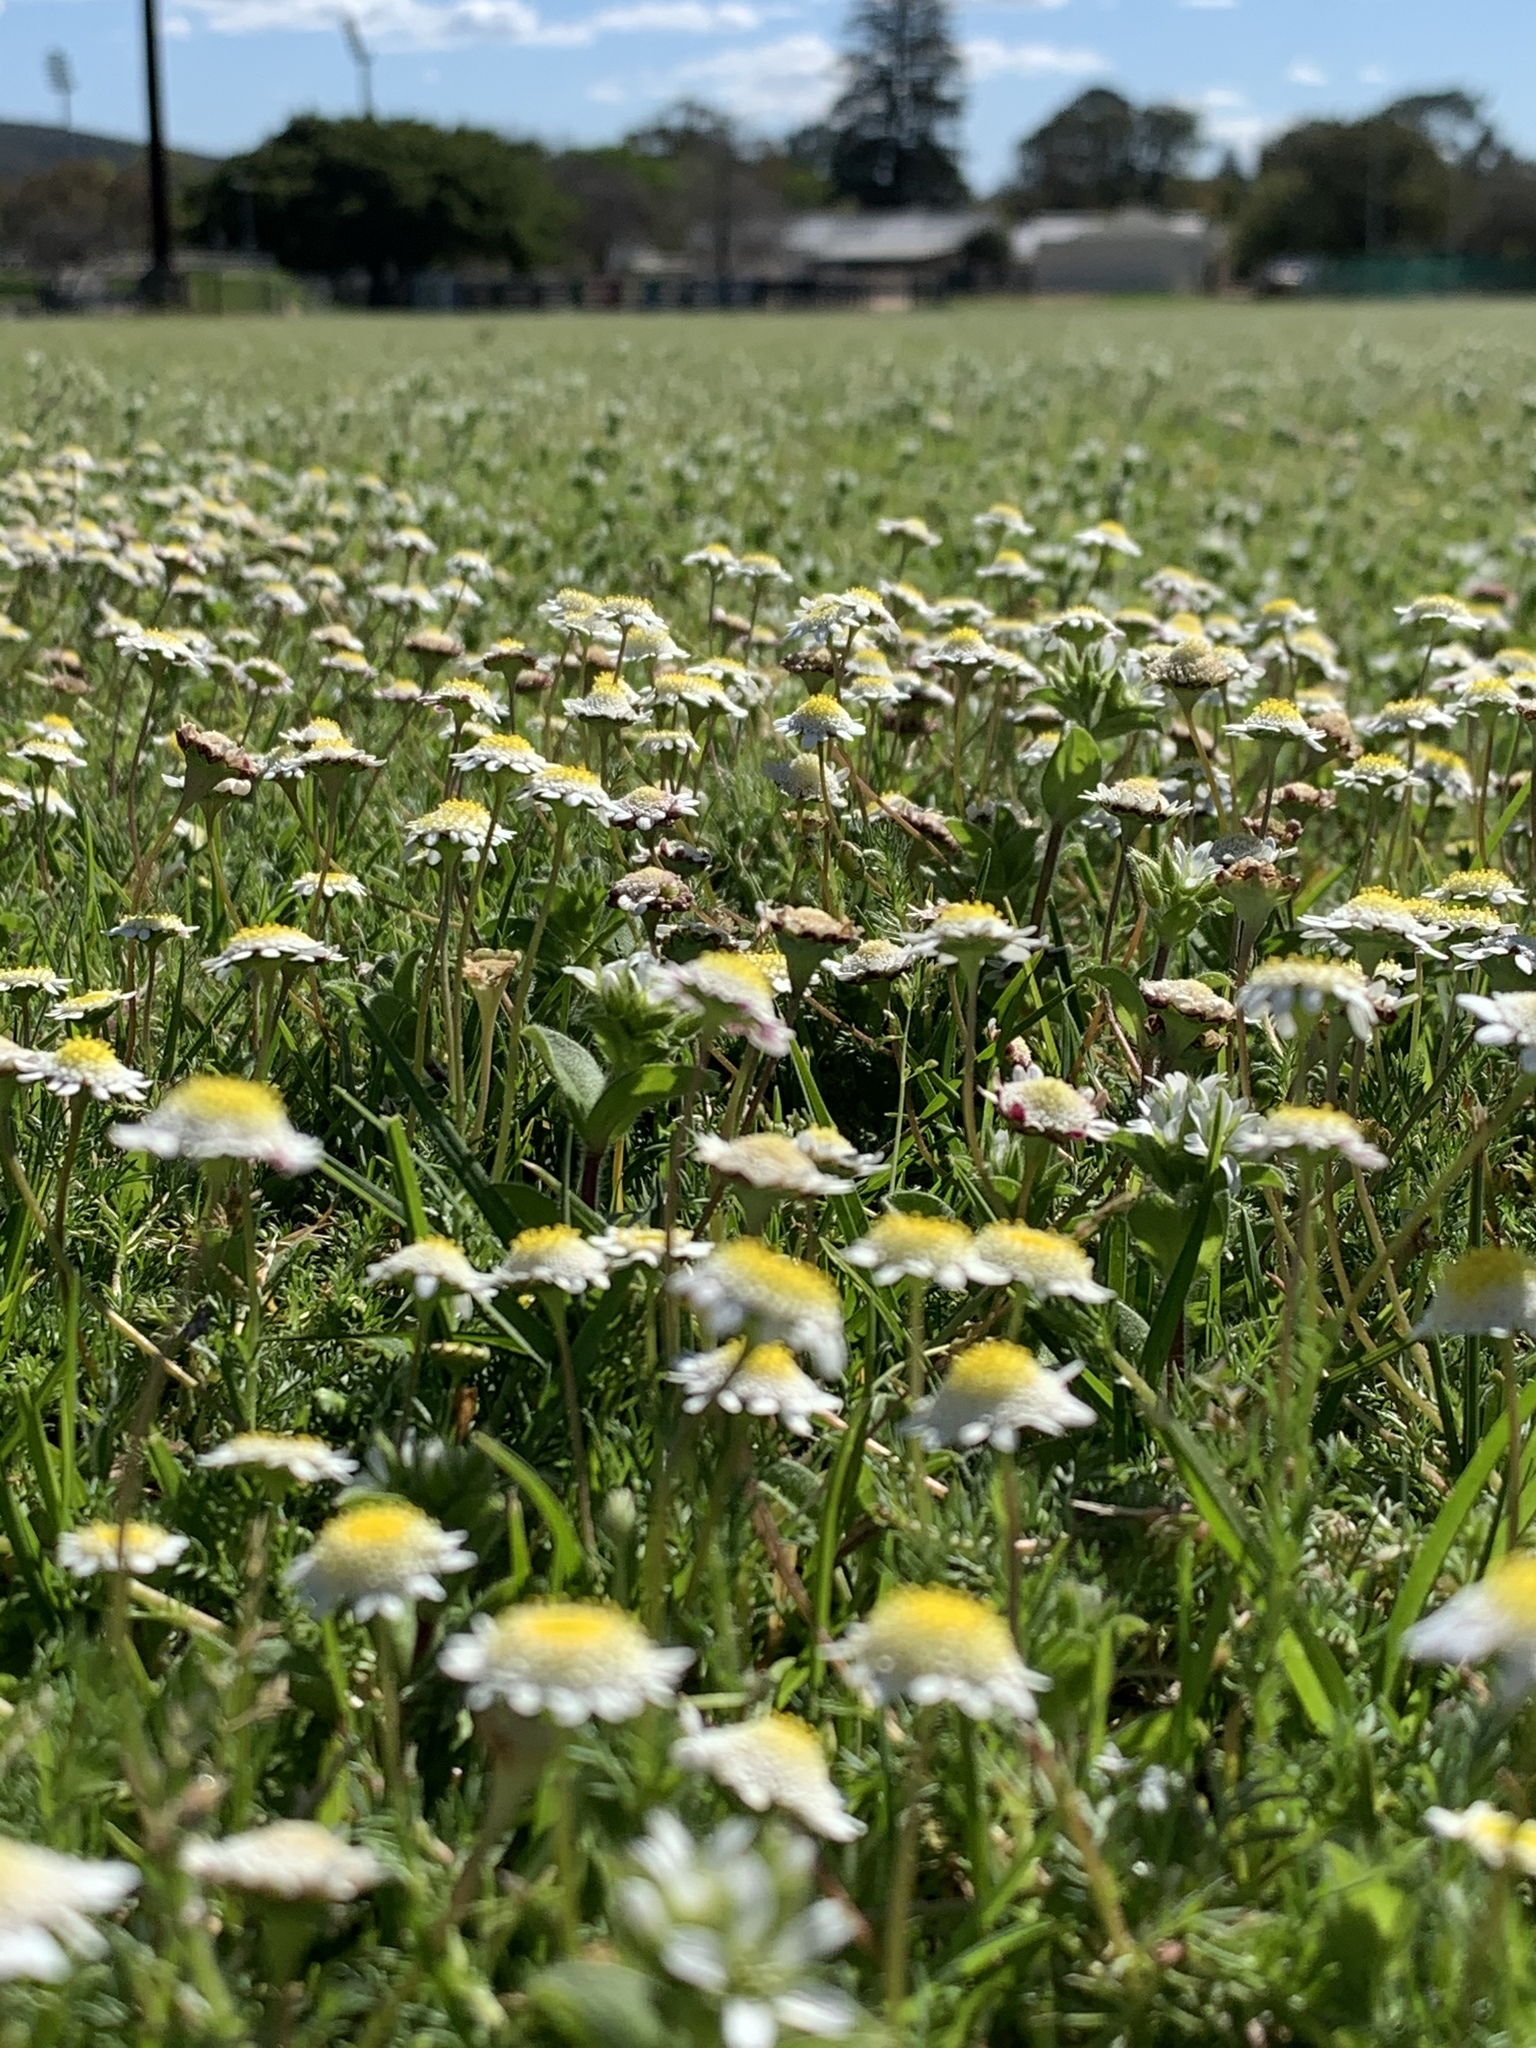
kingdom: Plantae
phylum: Tracheophyta
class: Magnoliopsida
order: Asterales
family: Asteraceae
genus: Cotula
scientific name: Cotula turbinata
